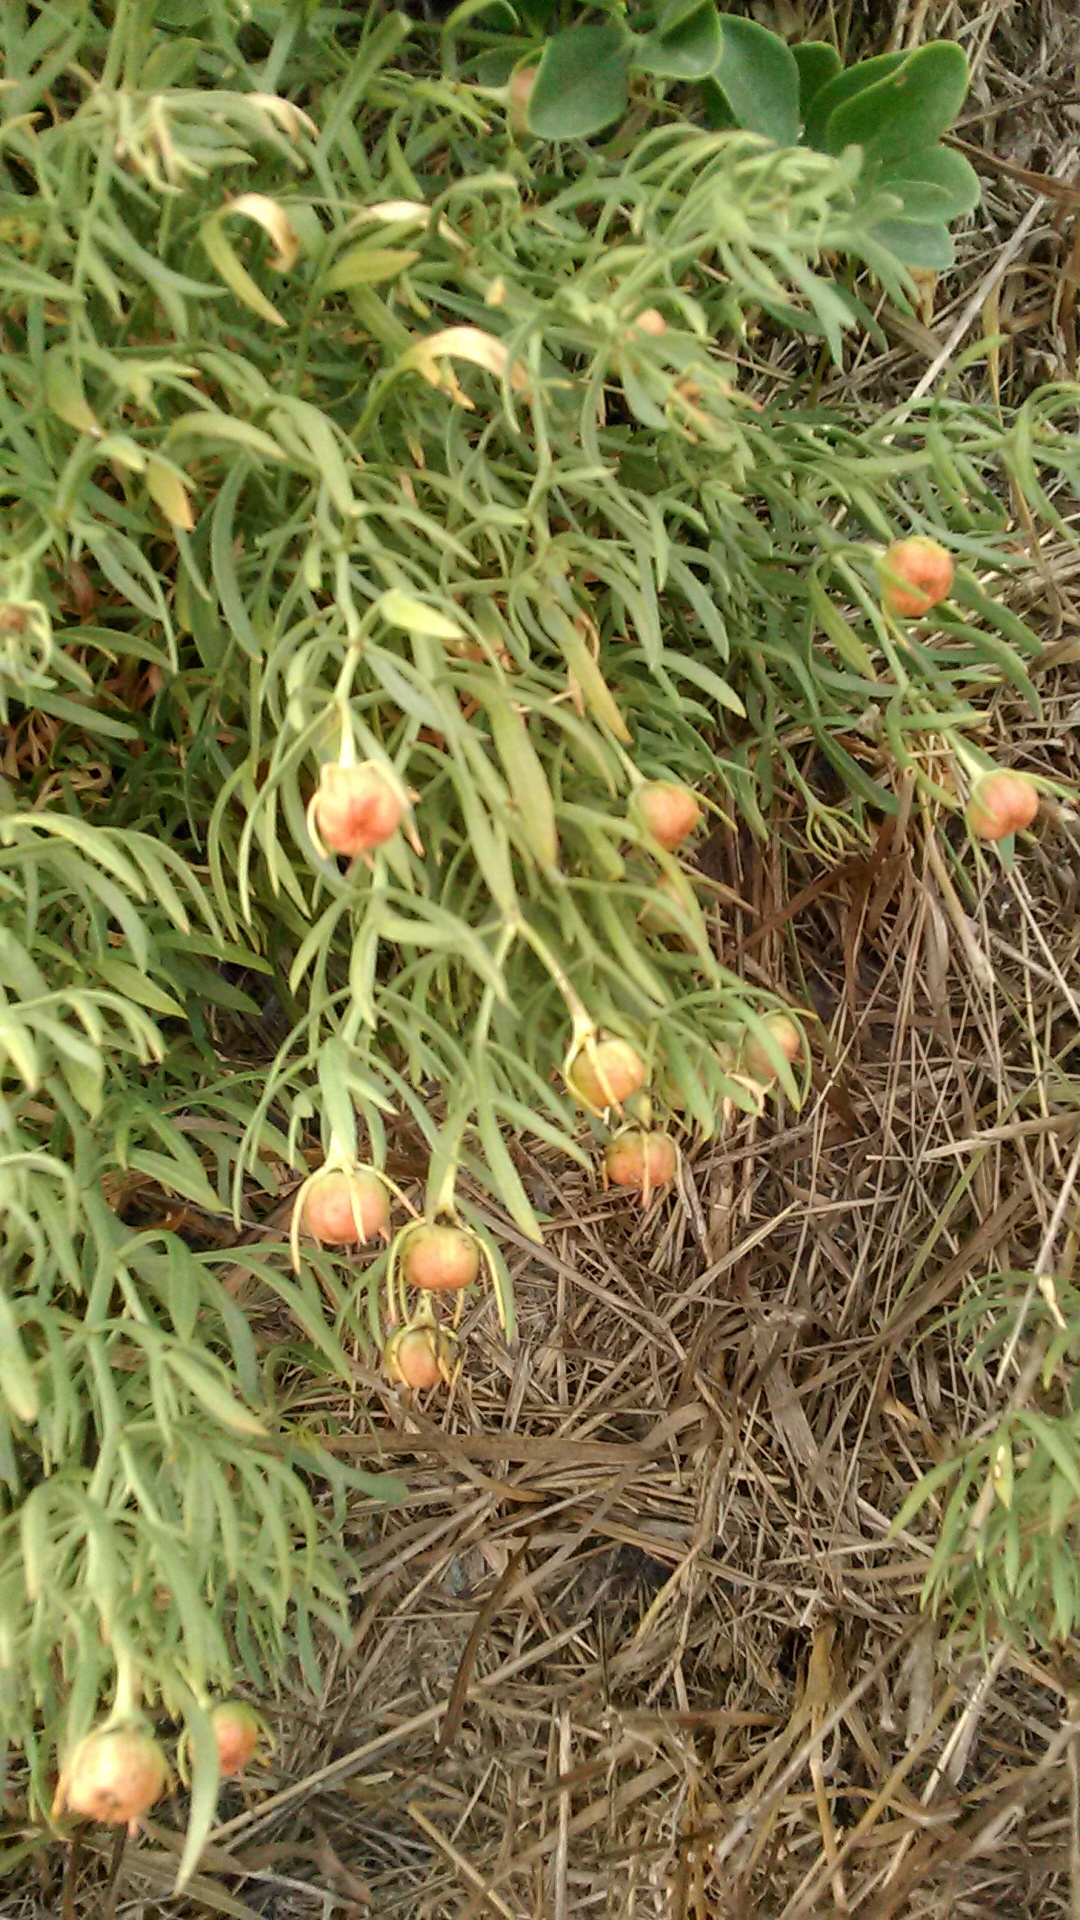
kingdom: Plantae
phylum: Tracheophyta
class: Magnoliopsida
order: Sapindales
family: Tetradiclidaceae
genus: Peganum
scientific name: Peganum harmala
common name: Harmal peganum
